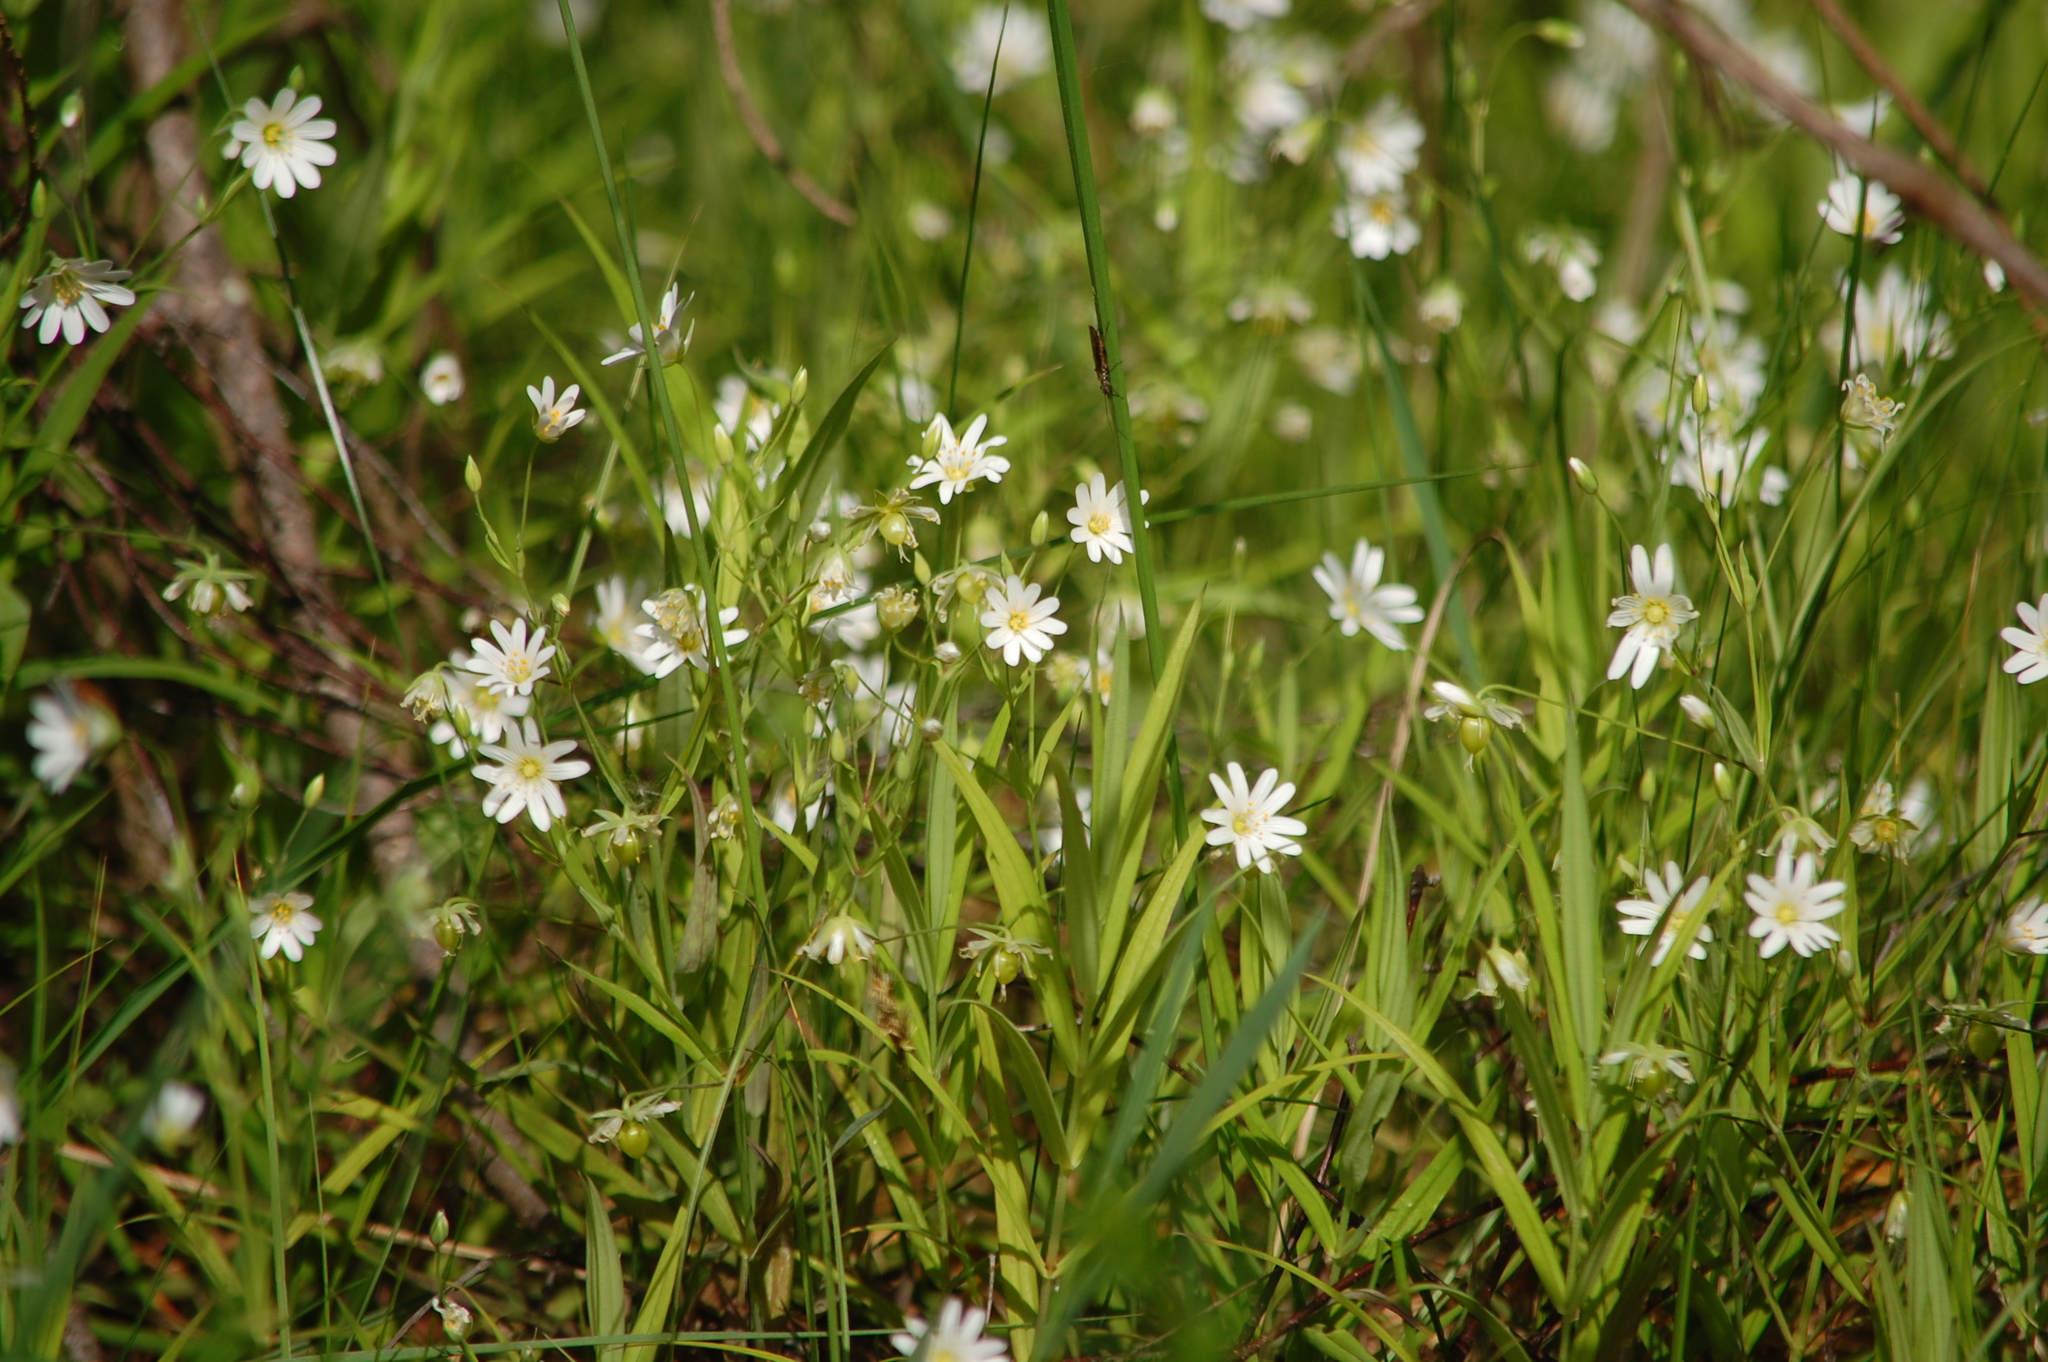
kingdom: Plantae
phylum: Tracheophyta
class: Magnoliopsida
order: Caryophyllales
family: Caryophyllaceae
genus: Rabelera
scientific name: Rabelera holostea
